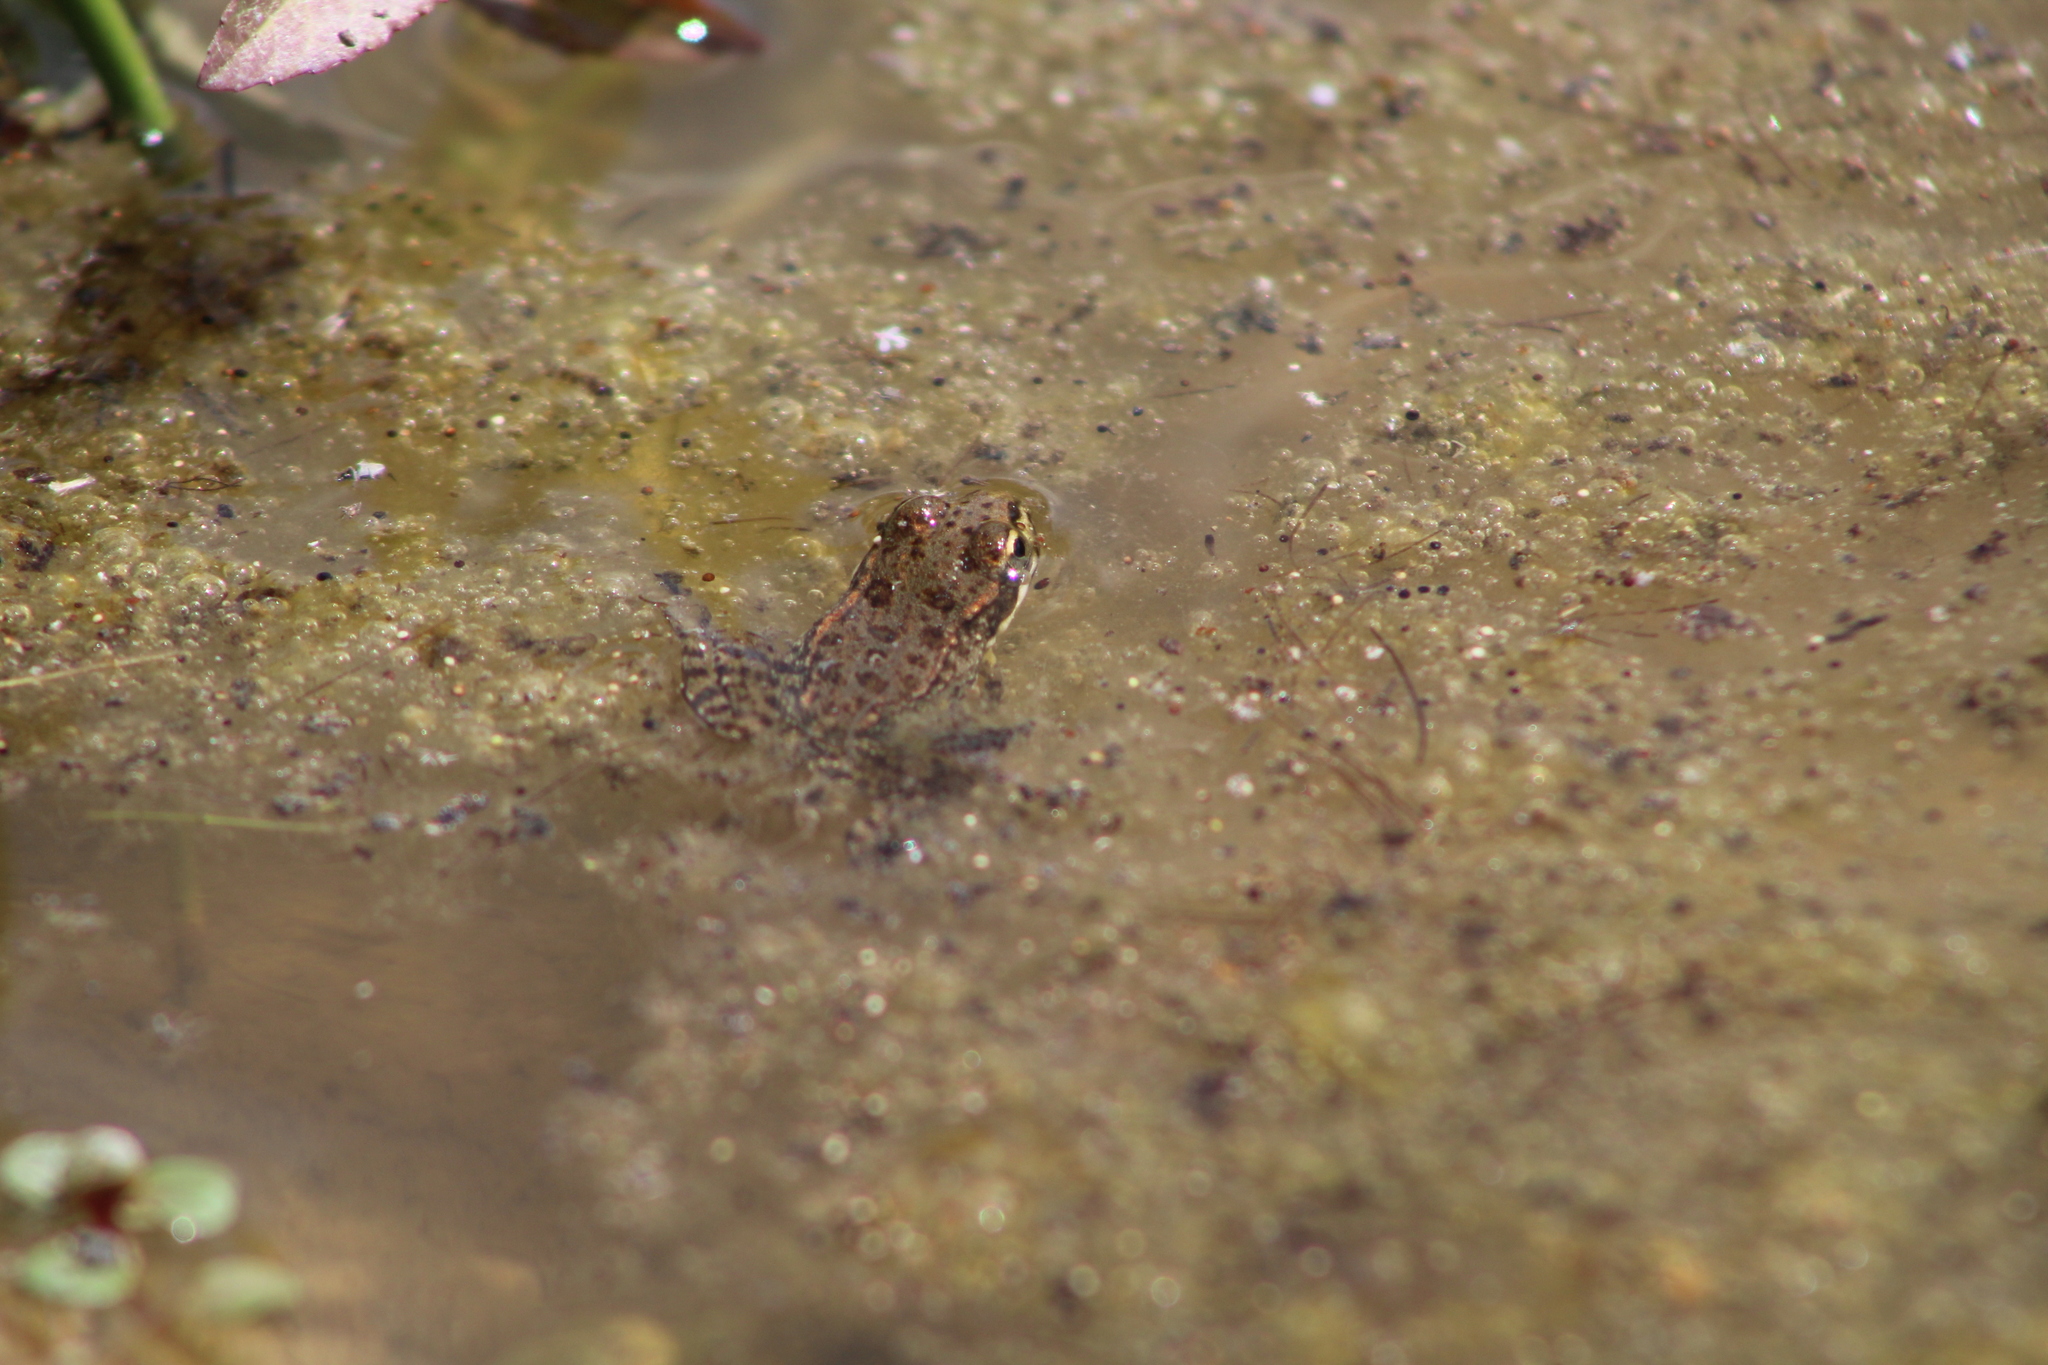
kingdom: Animalia
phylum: Chordata
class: Amphibia
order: Anura
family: Ranidae
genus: Pelophylax
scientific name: Pelophylax perezi
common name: Perez's frog
